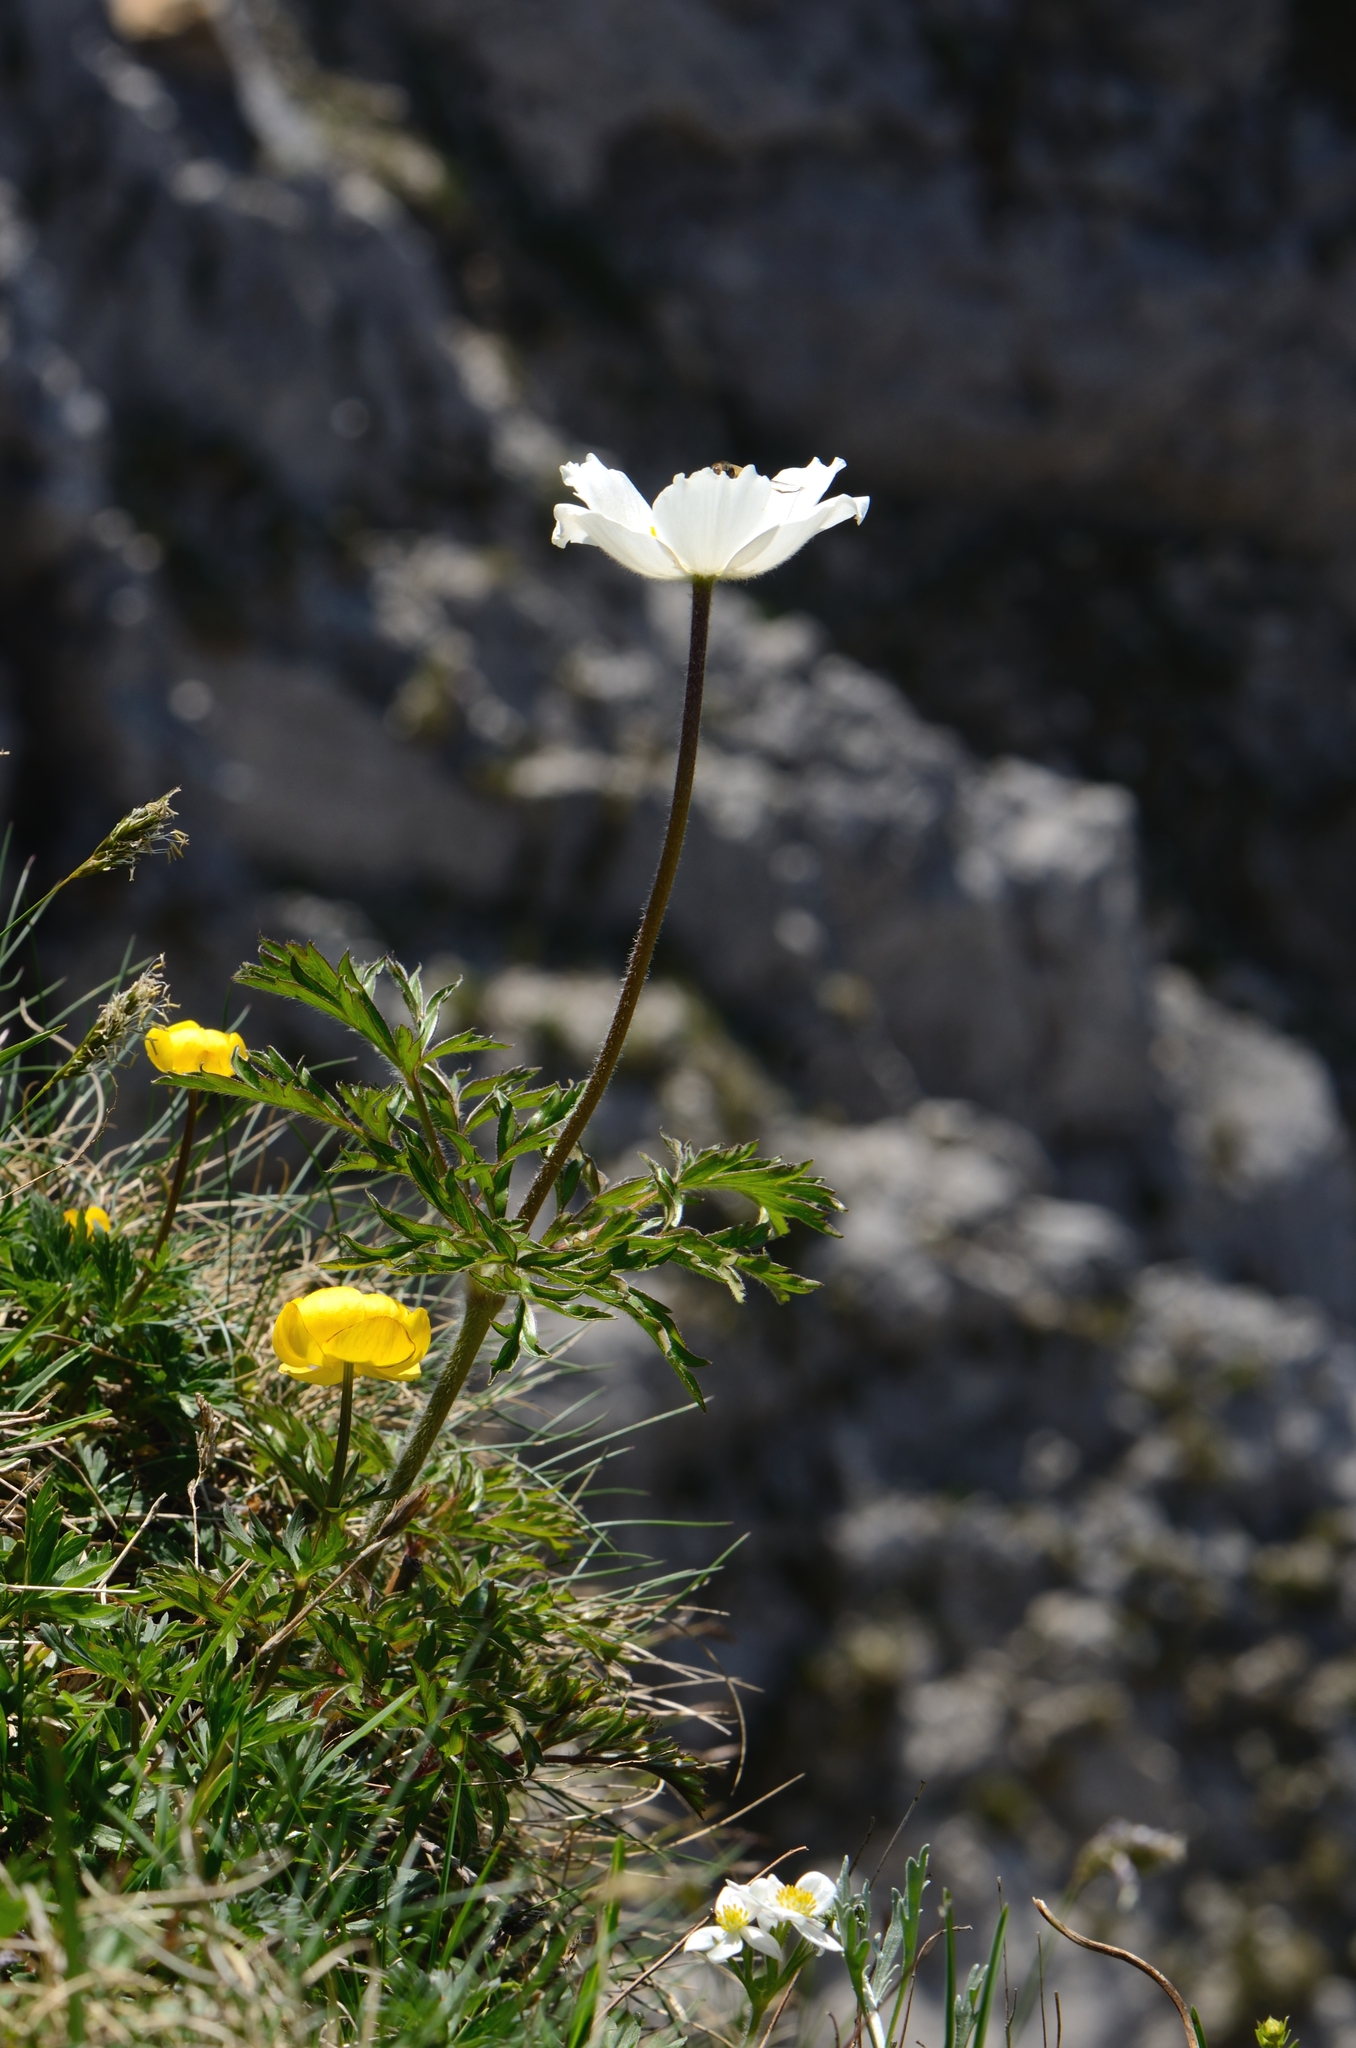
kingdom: Plantae
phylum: Tracheophyta
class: Magnoliopsida
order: Ranunculales
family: Ranunculaceae
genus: Pulsatilla
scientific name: Pulsatilla alpina
